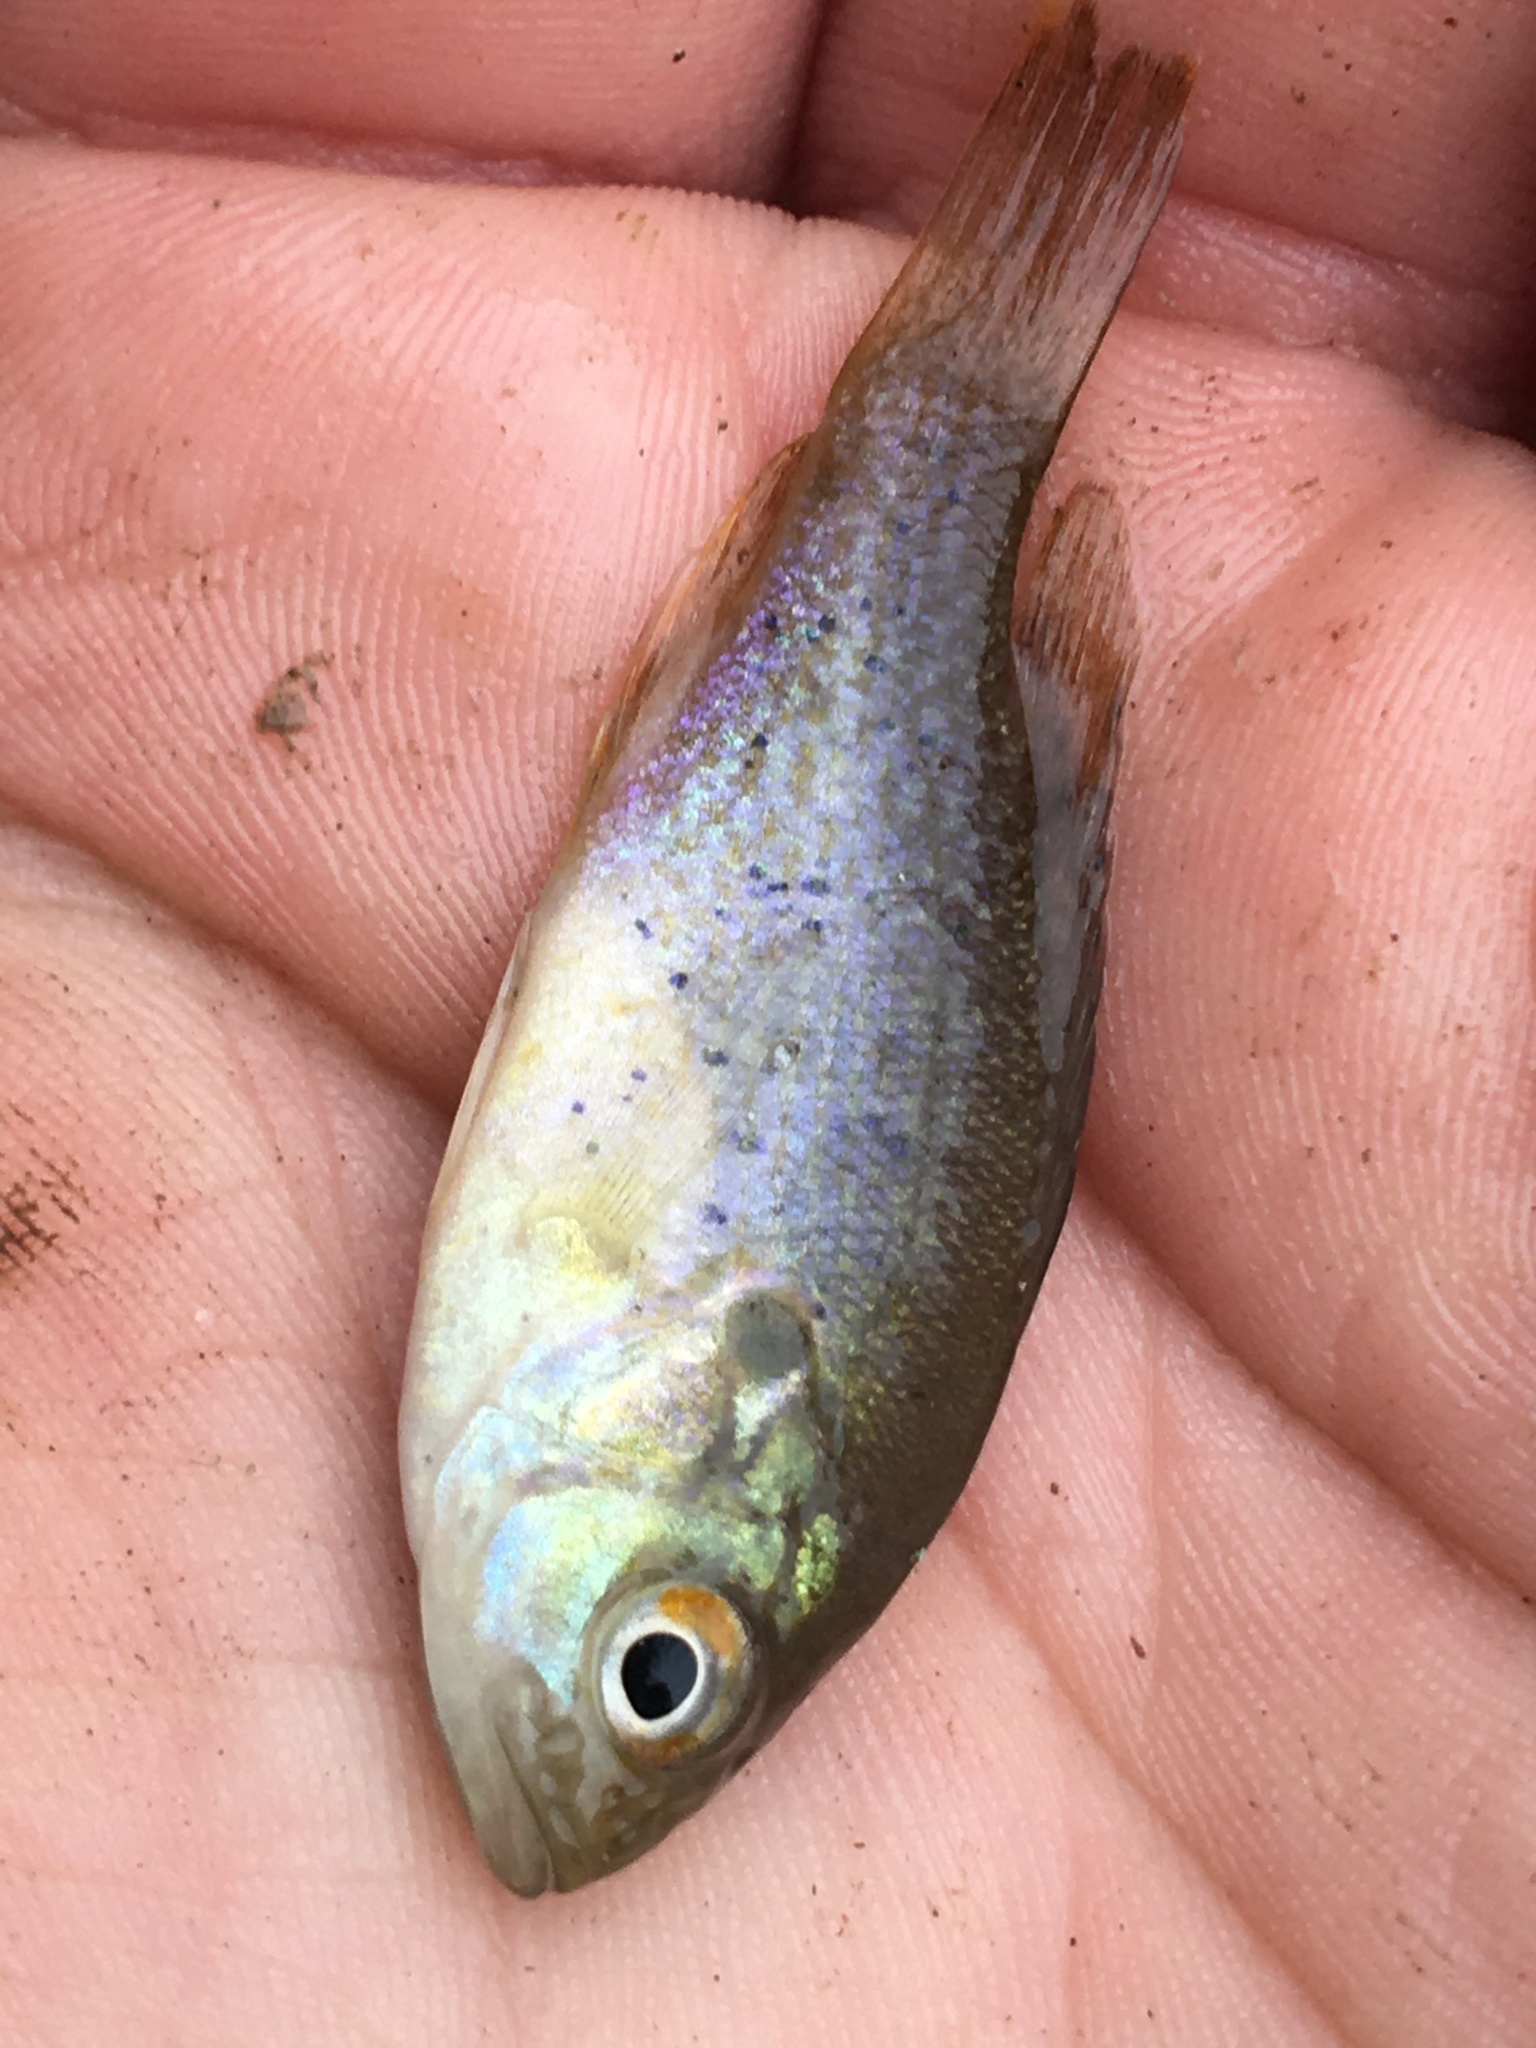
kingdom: Animalia
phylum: Chordata
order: Perciformes
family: Centrarchidae
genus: Lepomis
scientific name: Lepomis macrochirus
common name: Bluegill
